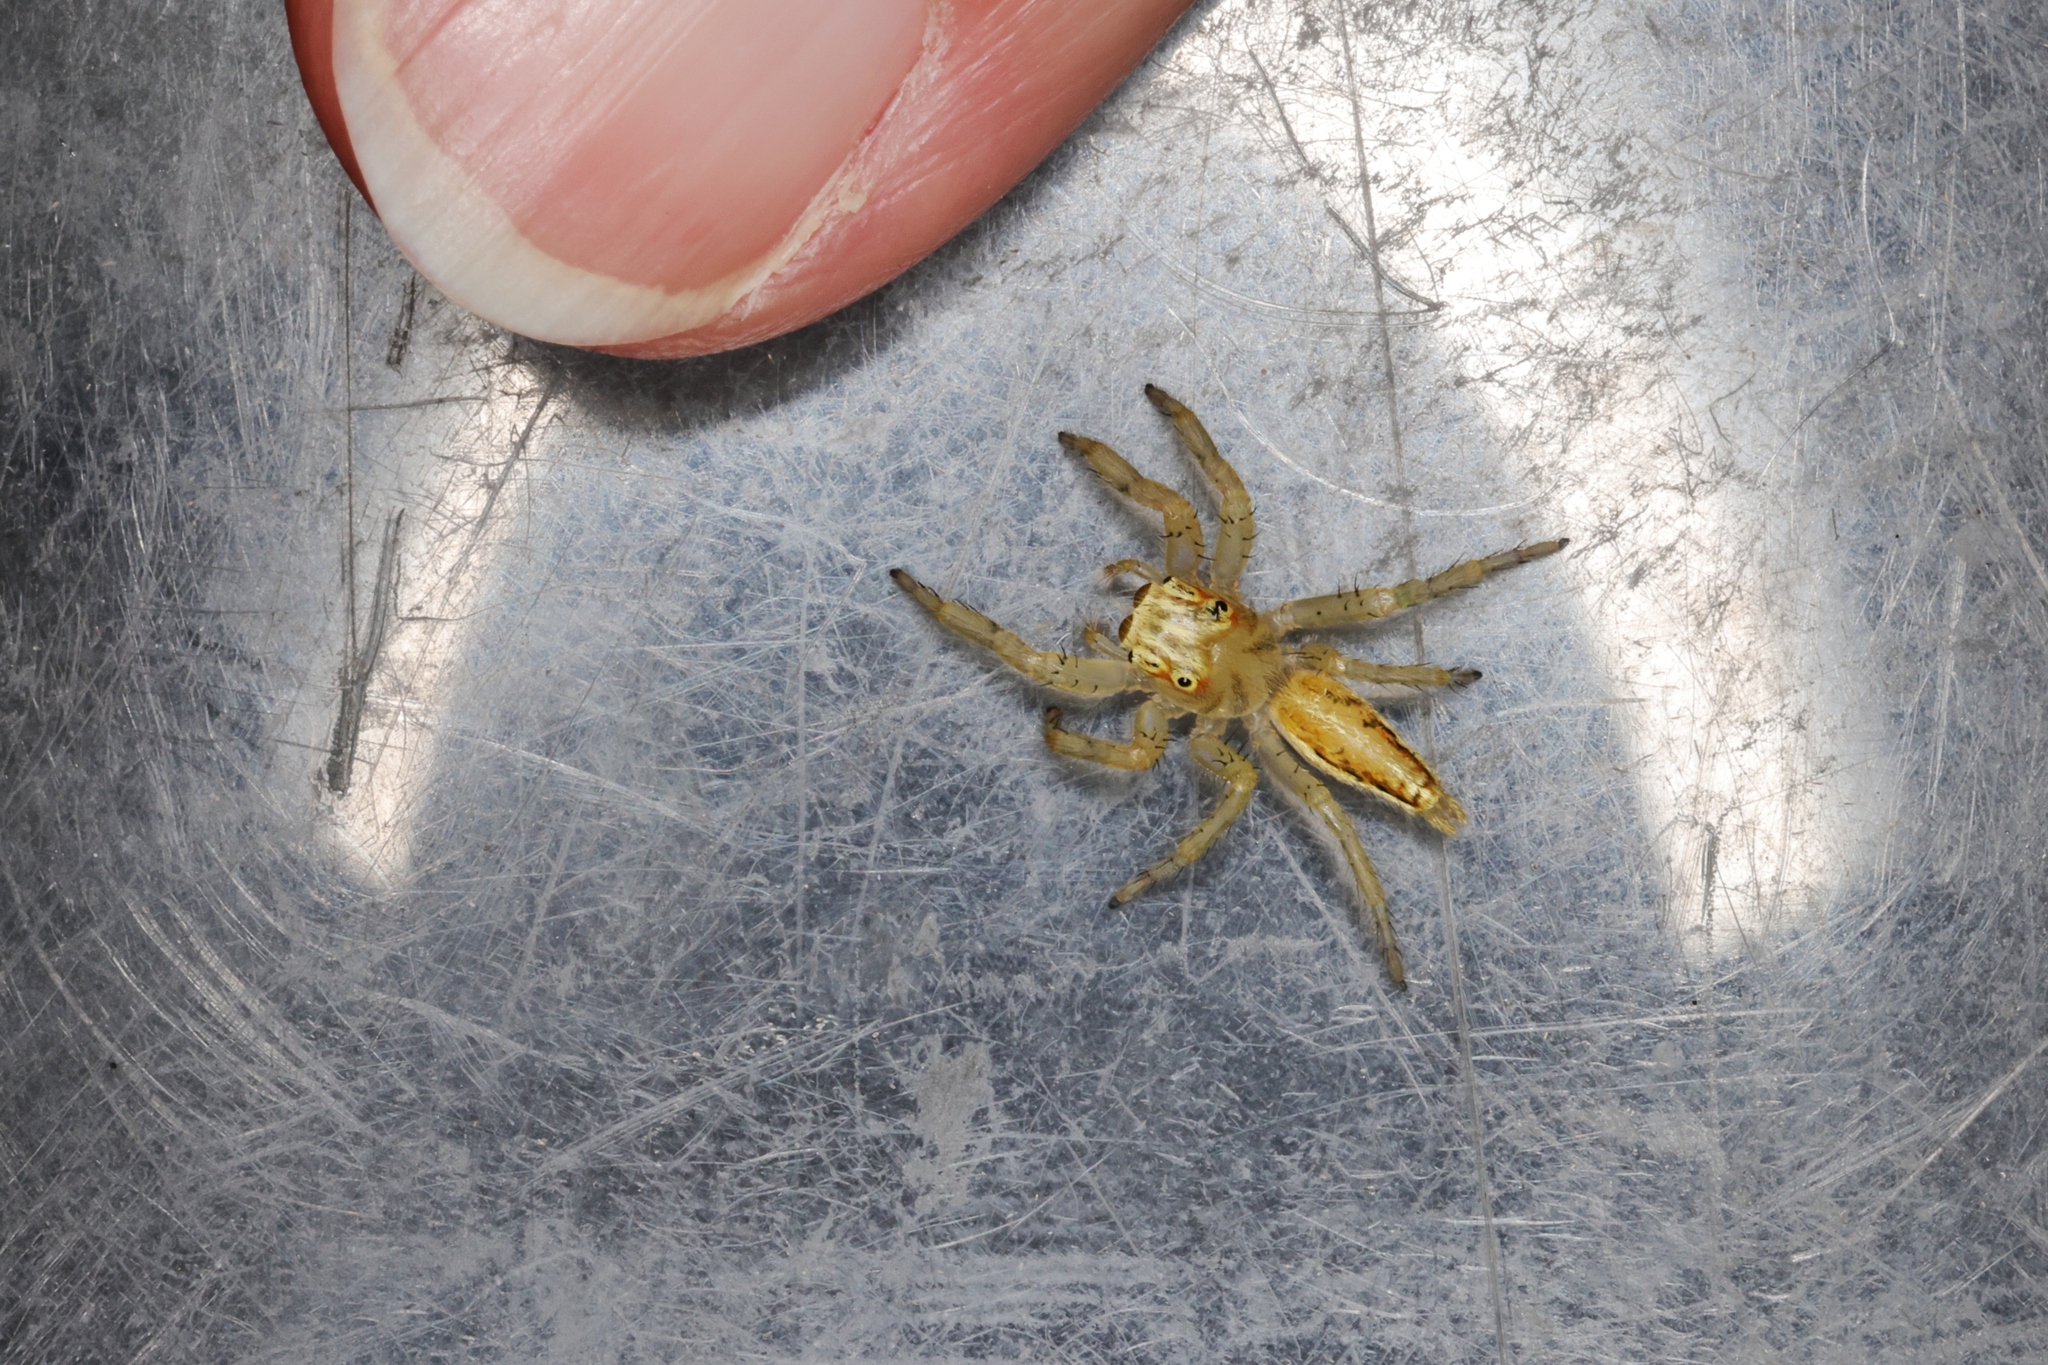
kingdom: Animalia
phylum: Arthropoda
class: Arachnida
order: Araneae
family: Salticidae
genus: Telamonia
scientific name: Telamonia caprina
